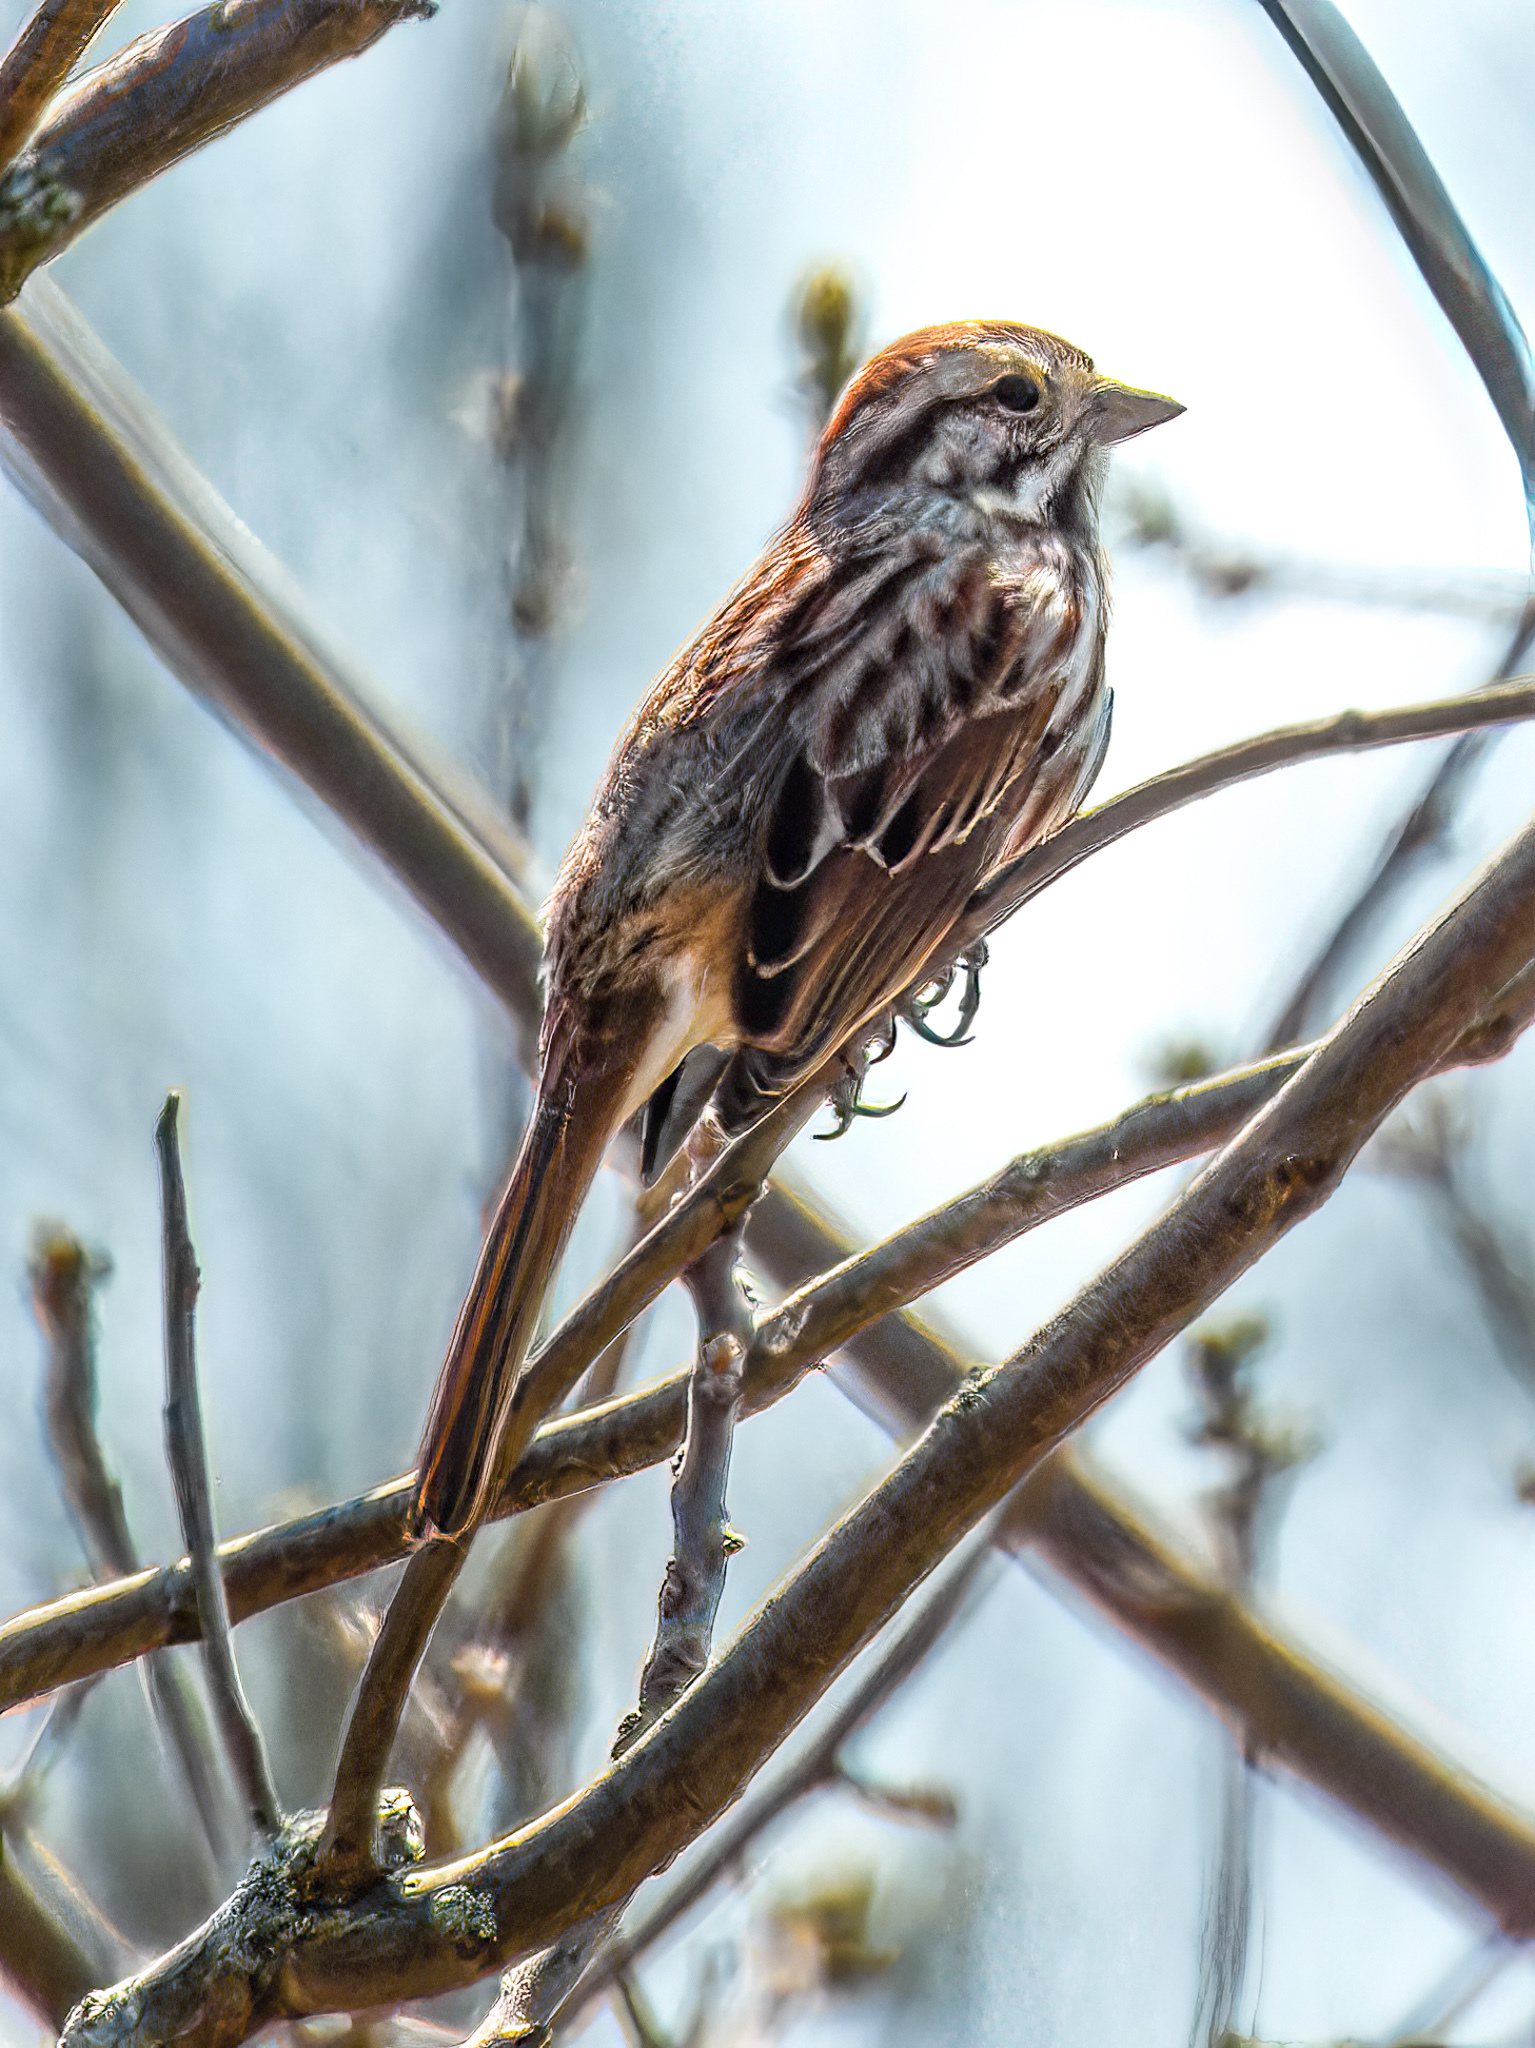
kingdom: Animalia
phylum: Chordata
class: Aves
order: Passeriformes
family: Passerellidae
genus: Melospiza
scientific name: Melospiza melodia
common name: Song sparrow
